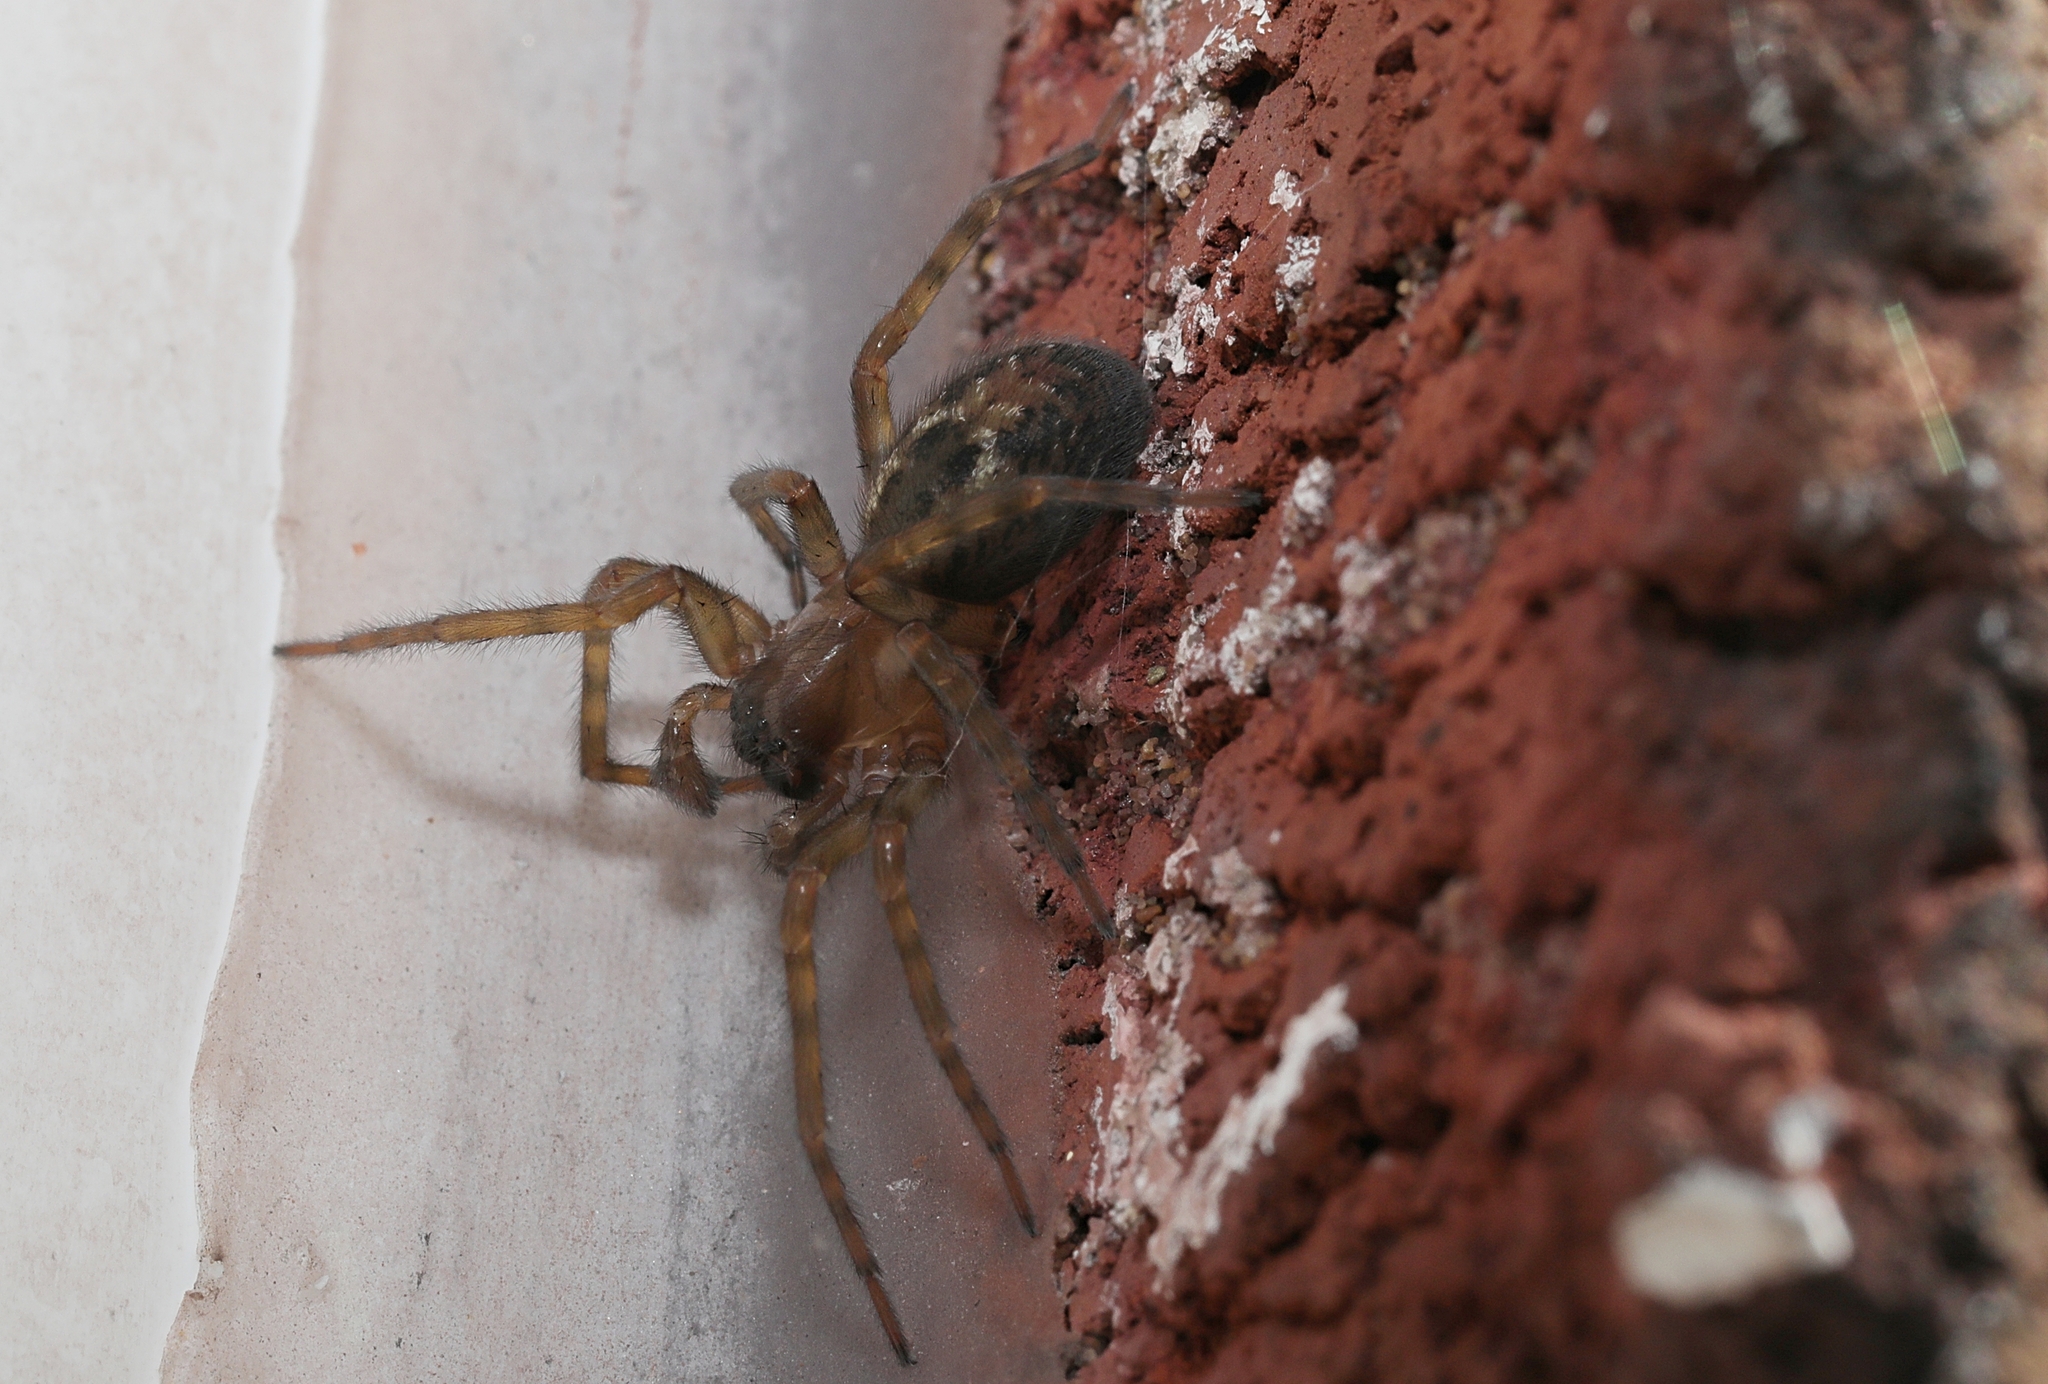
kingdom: Animalia
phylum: Arthropoda
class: Arachnida
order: Araneae
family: Amaurobiidae
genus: Amaurobius
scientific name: Amaurobius similis
